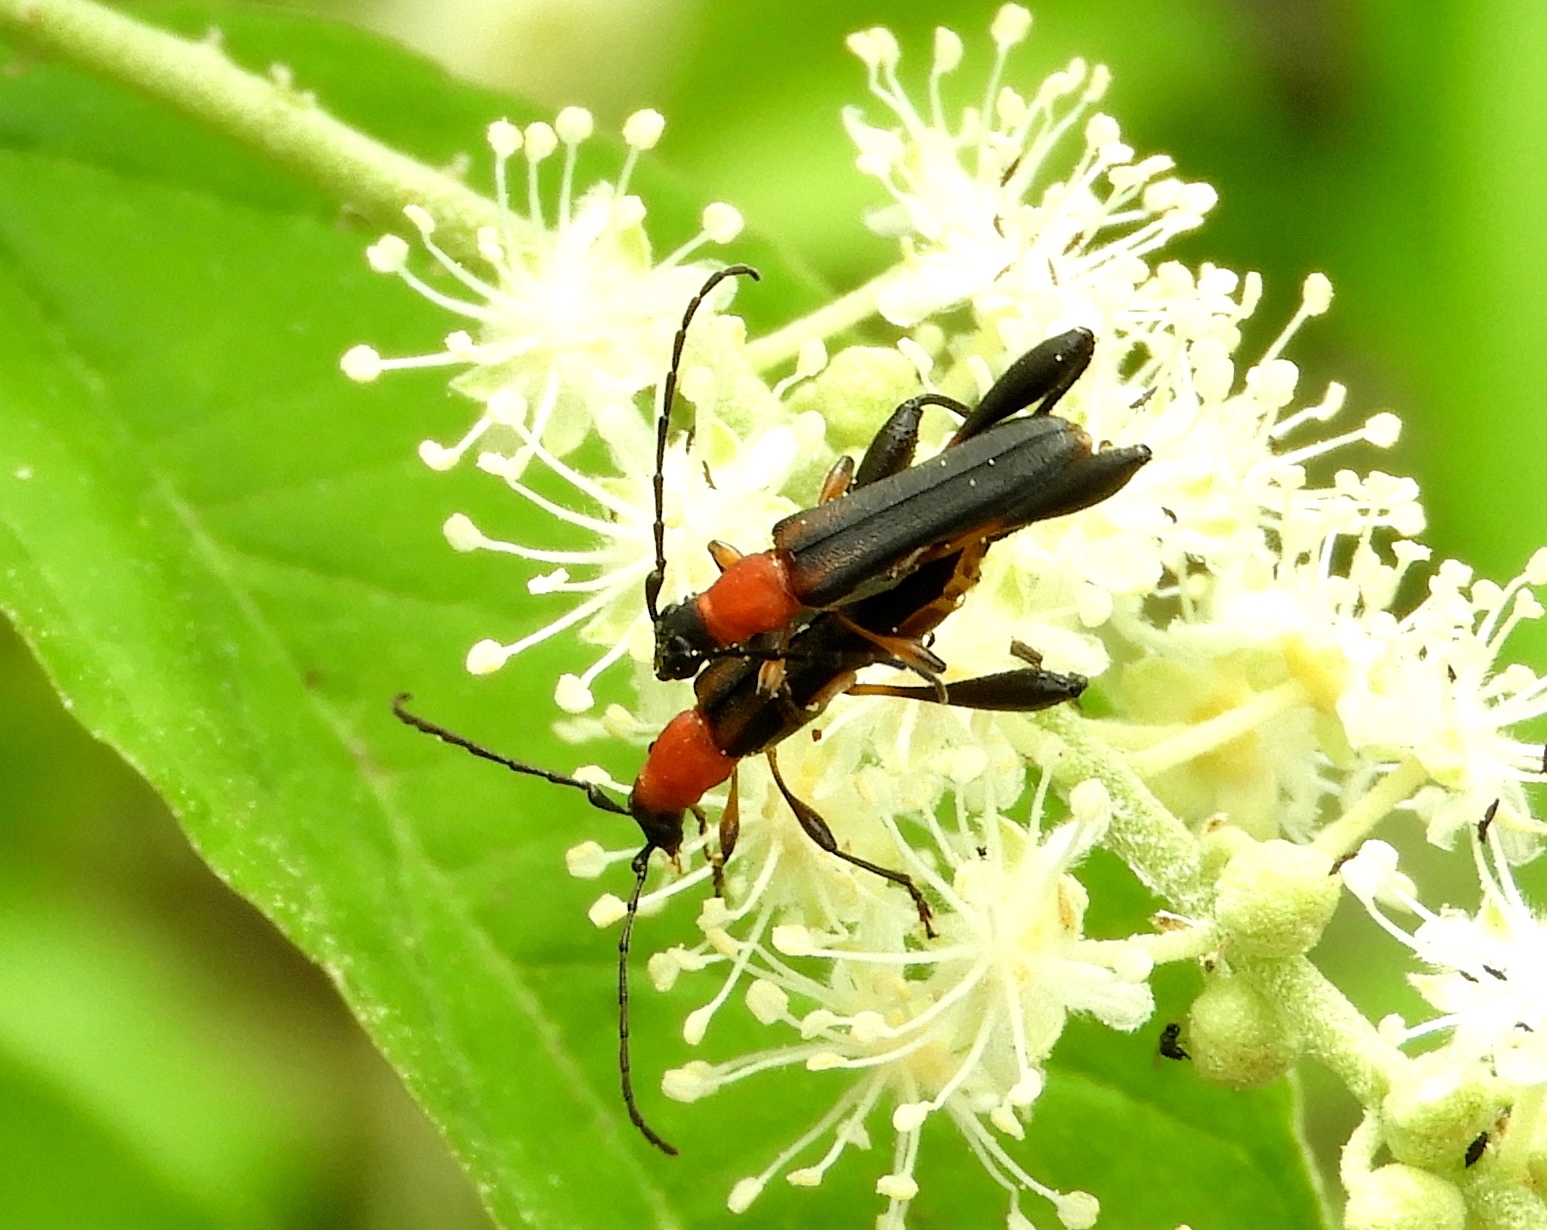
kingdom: Animalia
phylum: Arthropoda
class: Insecta
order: Coleoptera
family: Cerambycidae
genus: Pachymerola
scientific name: Pachymerola ruficollis
